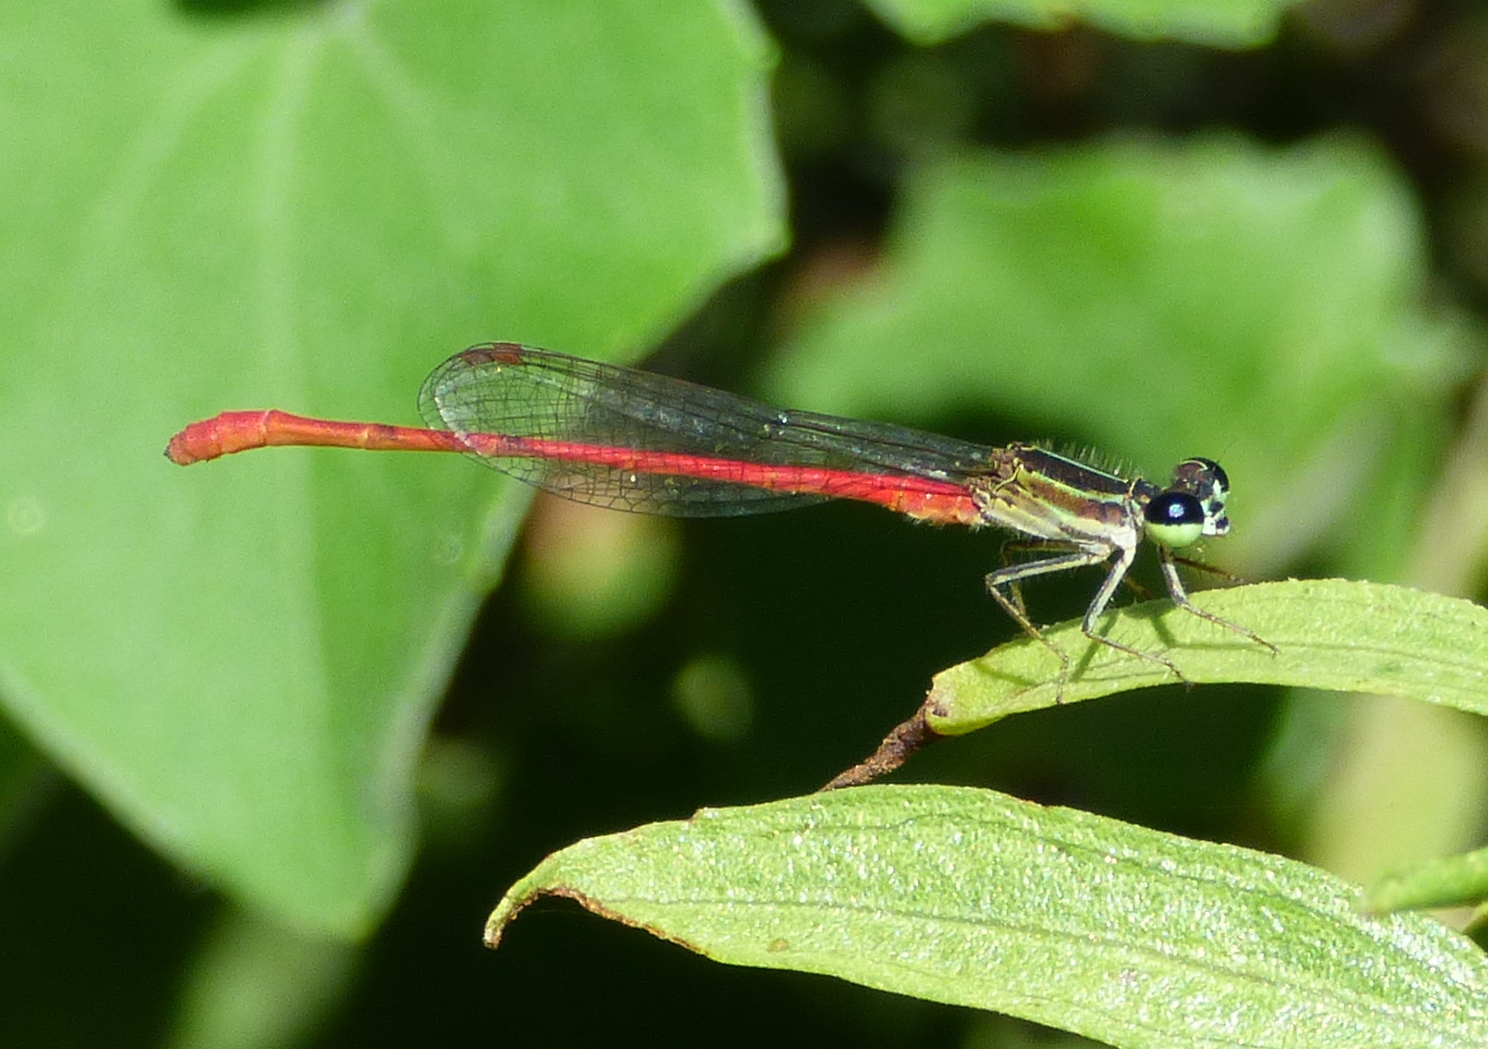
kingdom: Animalia
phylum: Arthropoda
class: Insecta
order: Odonata
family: Coenagrionidae
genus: Telebasis
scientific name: Telebasis willinki
